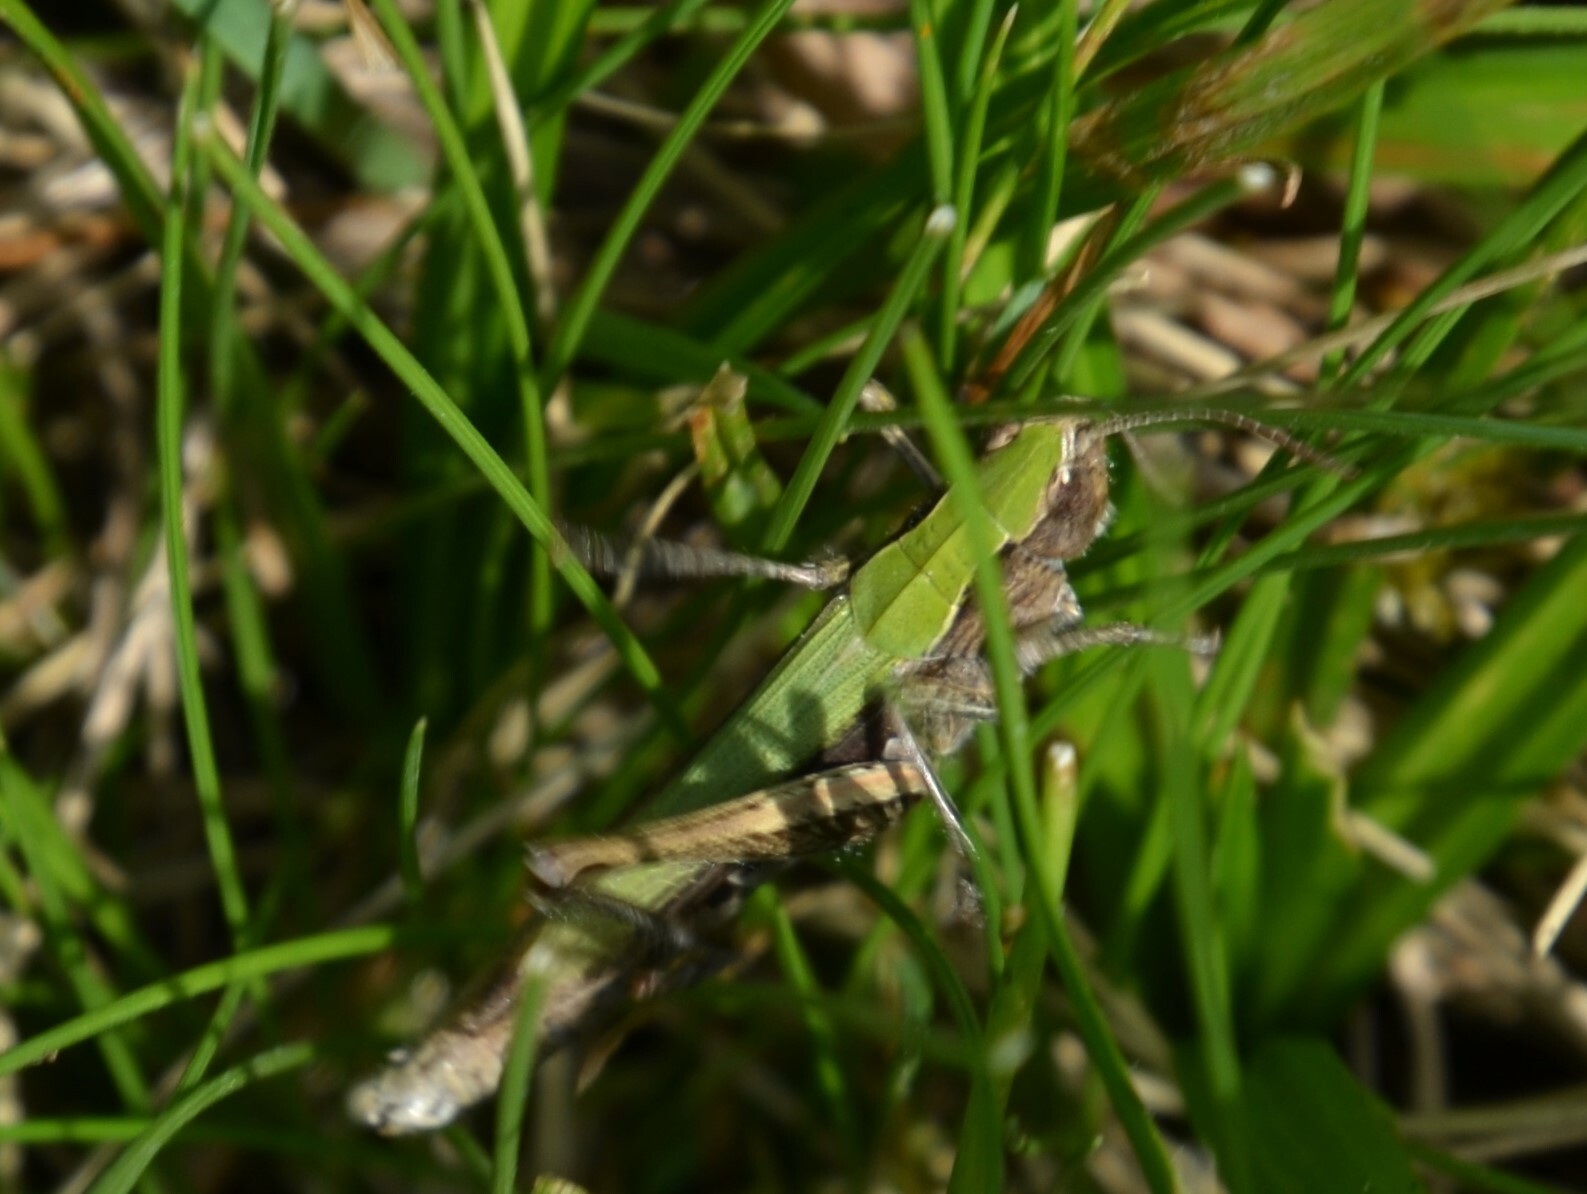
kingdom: Animalia
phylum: Arthropoda
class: Insecta
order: Orthoptera
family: Acrididae
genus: Chorthippus
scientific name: Chorthippus dorsatus
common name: Steppe grasshopper
